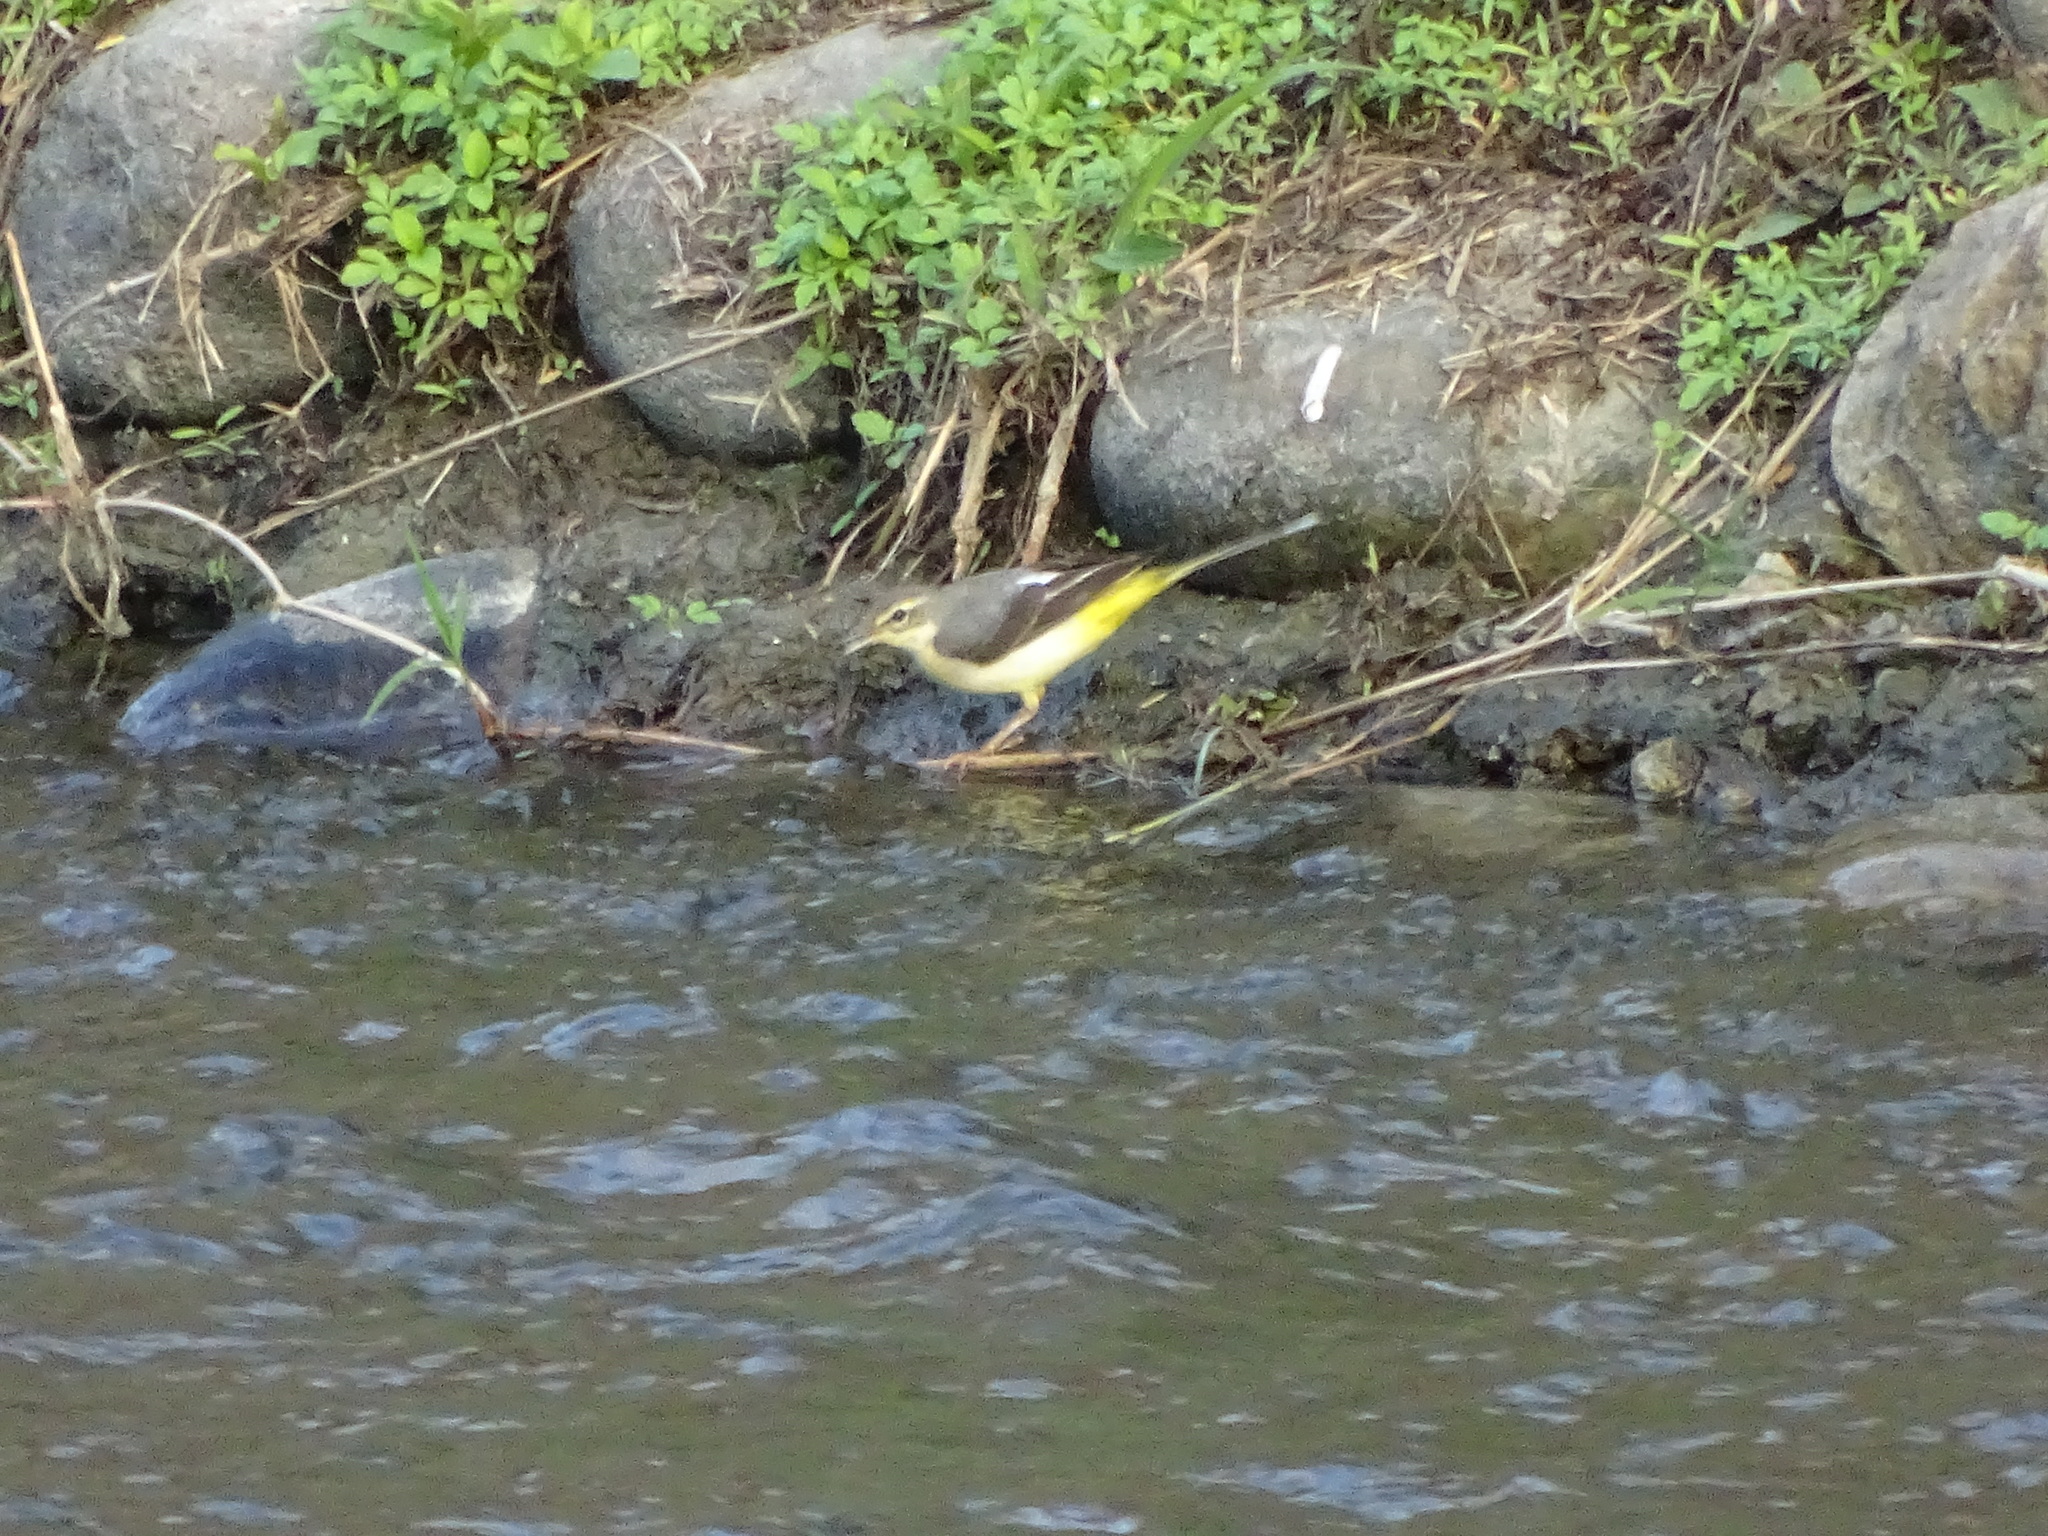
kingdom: Animalia
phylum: Chordata
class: Aves
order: Passeriformes
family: Motacillidae
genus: Motacilla
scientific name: Motacilla cinerea
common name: Grey wagtail
